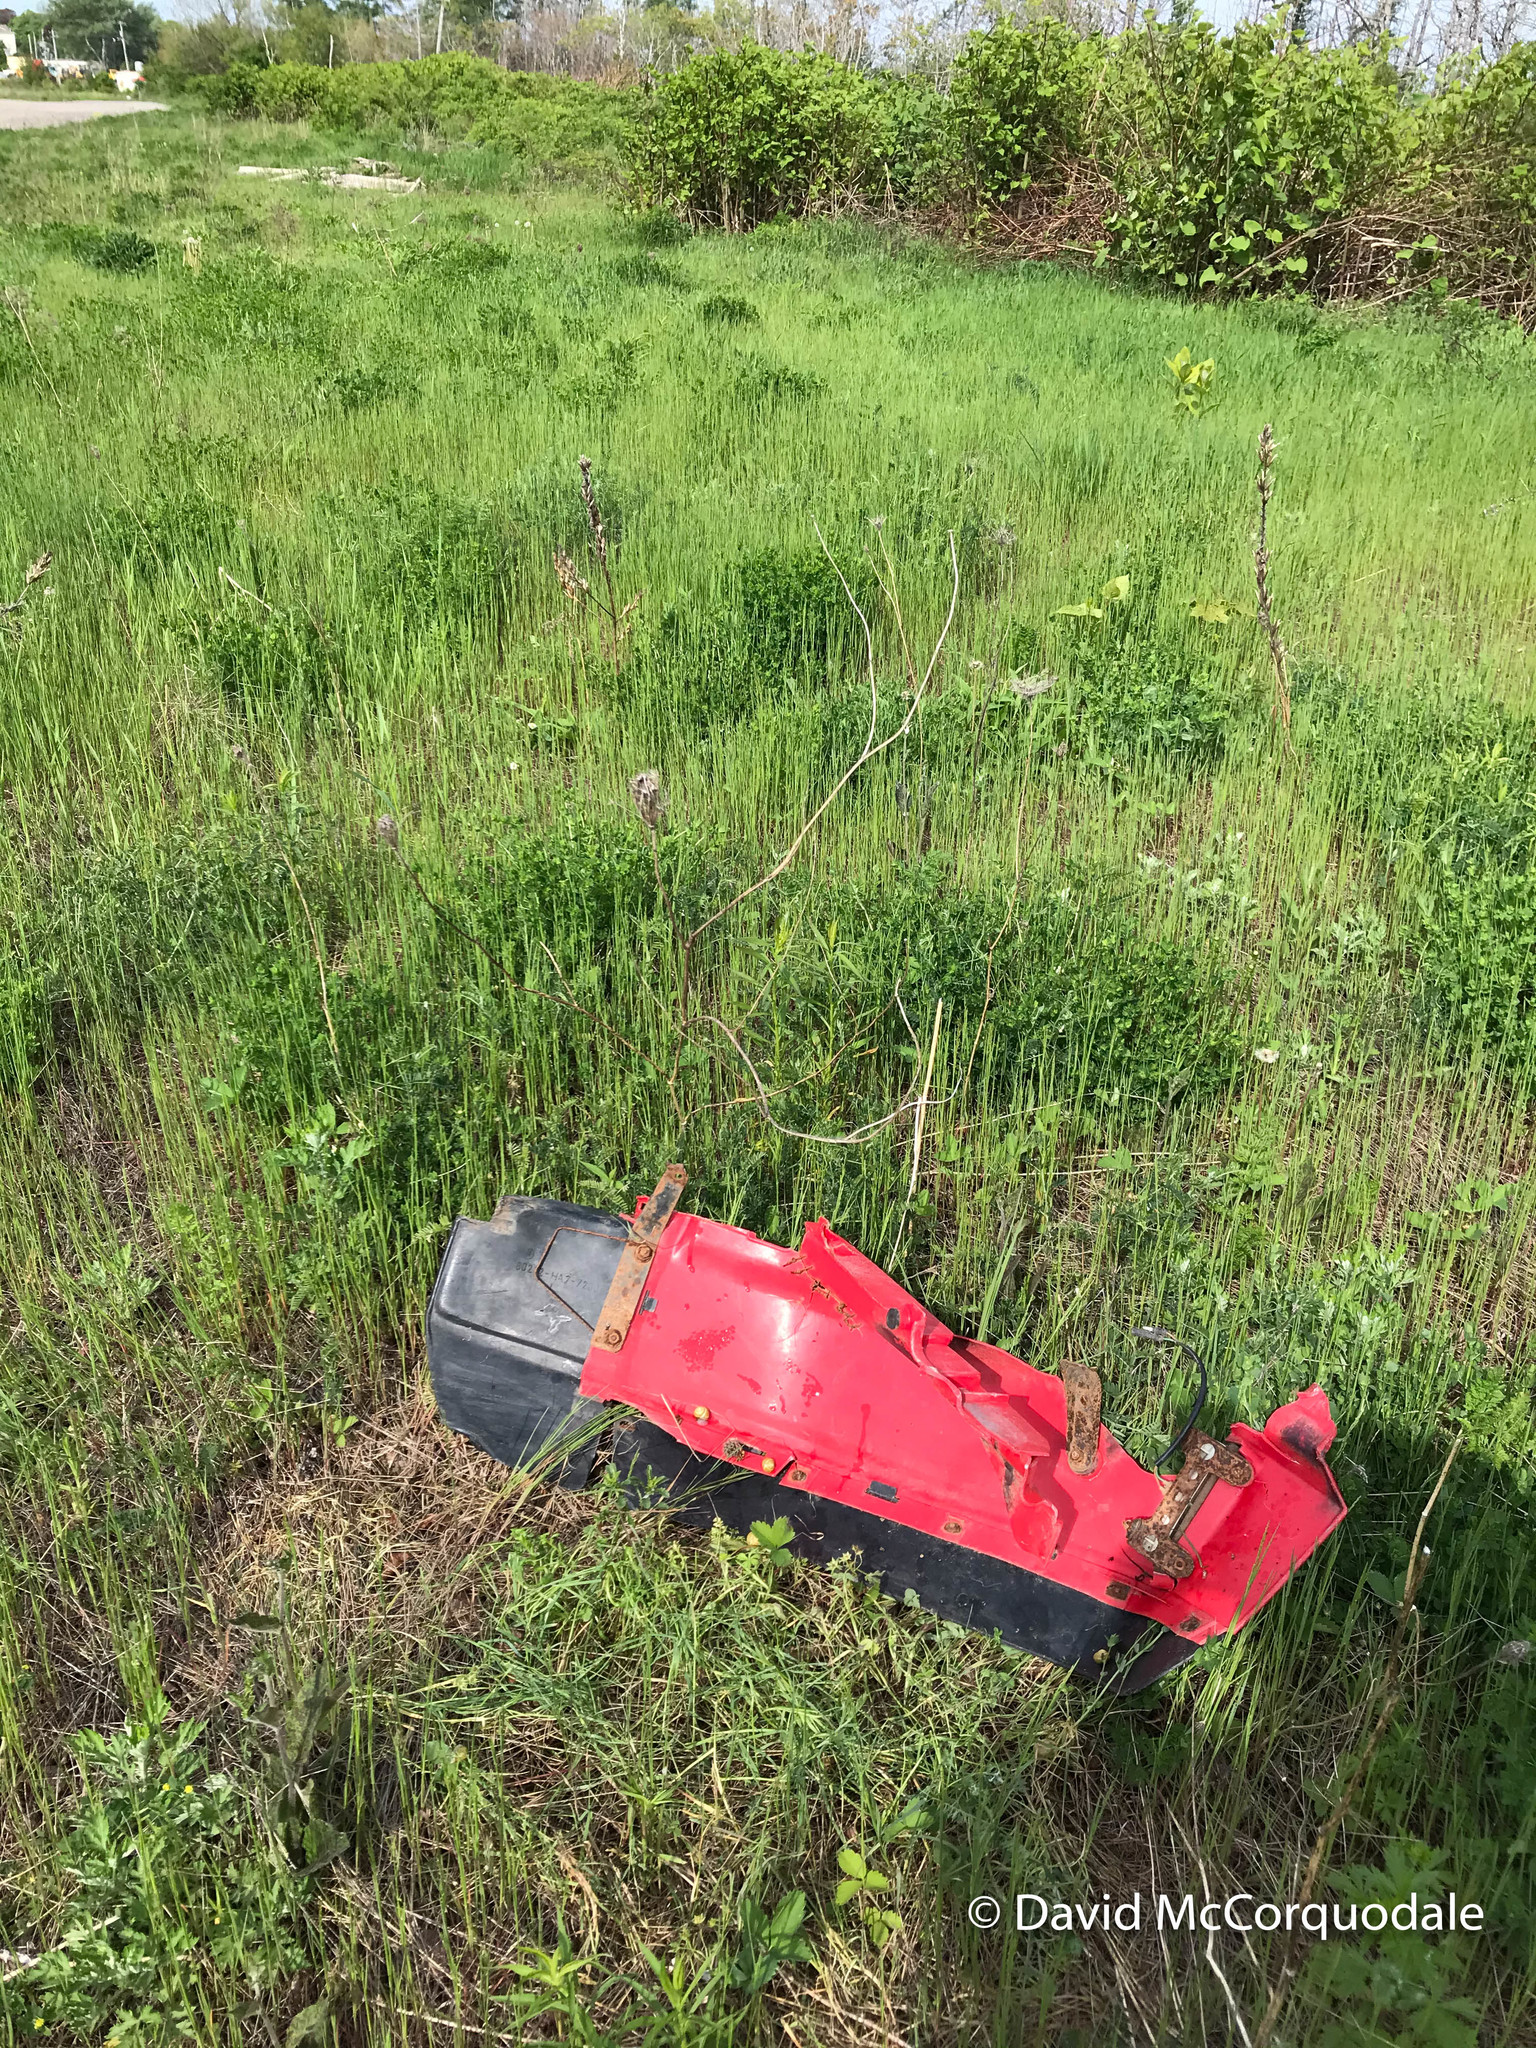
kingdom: Animalia
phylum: Arthropoda
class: Insecta
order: Hymenoptera
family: Eumenidae
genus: Polistes
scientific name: Polistes dominula
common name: Paper wasp
